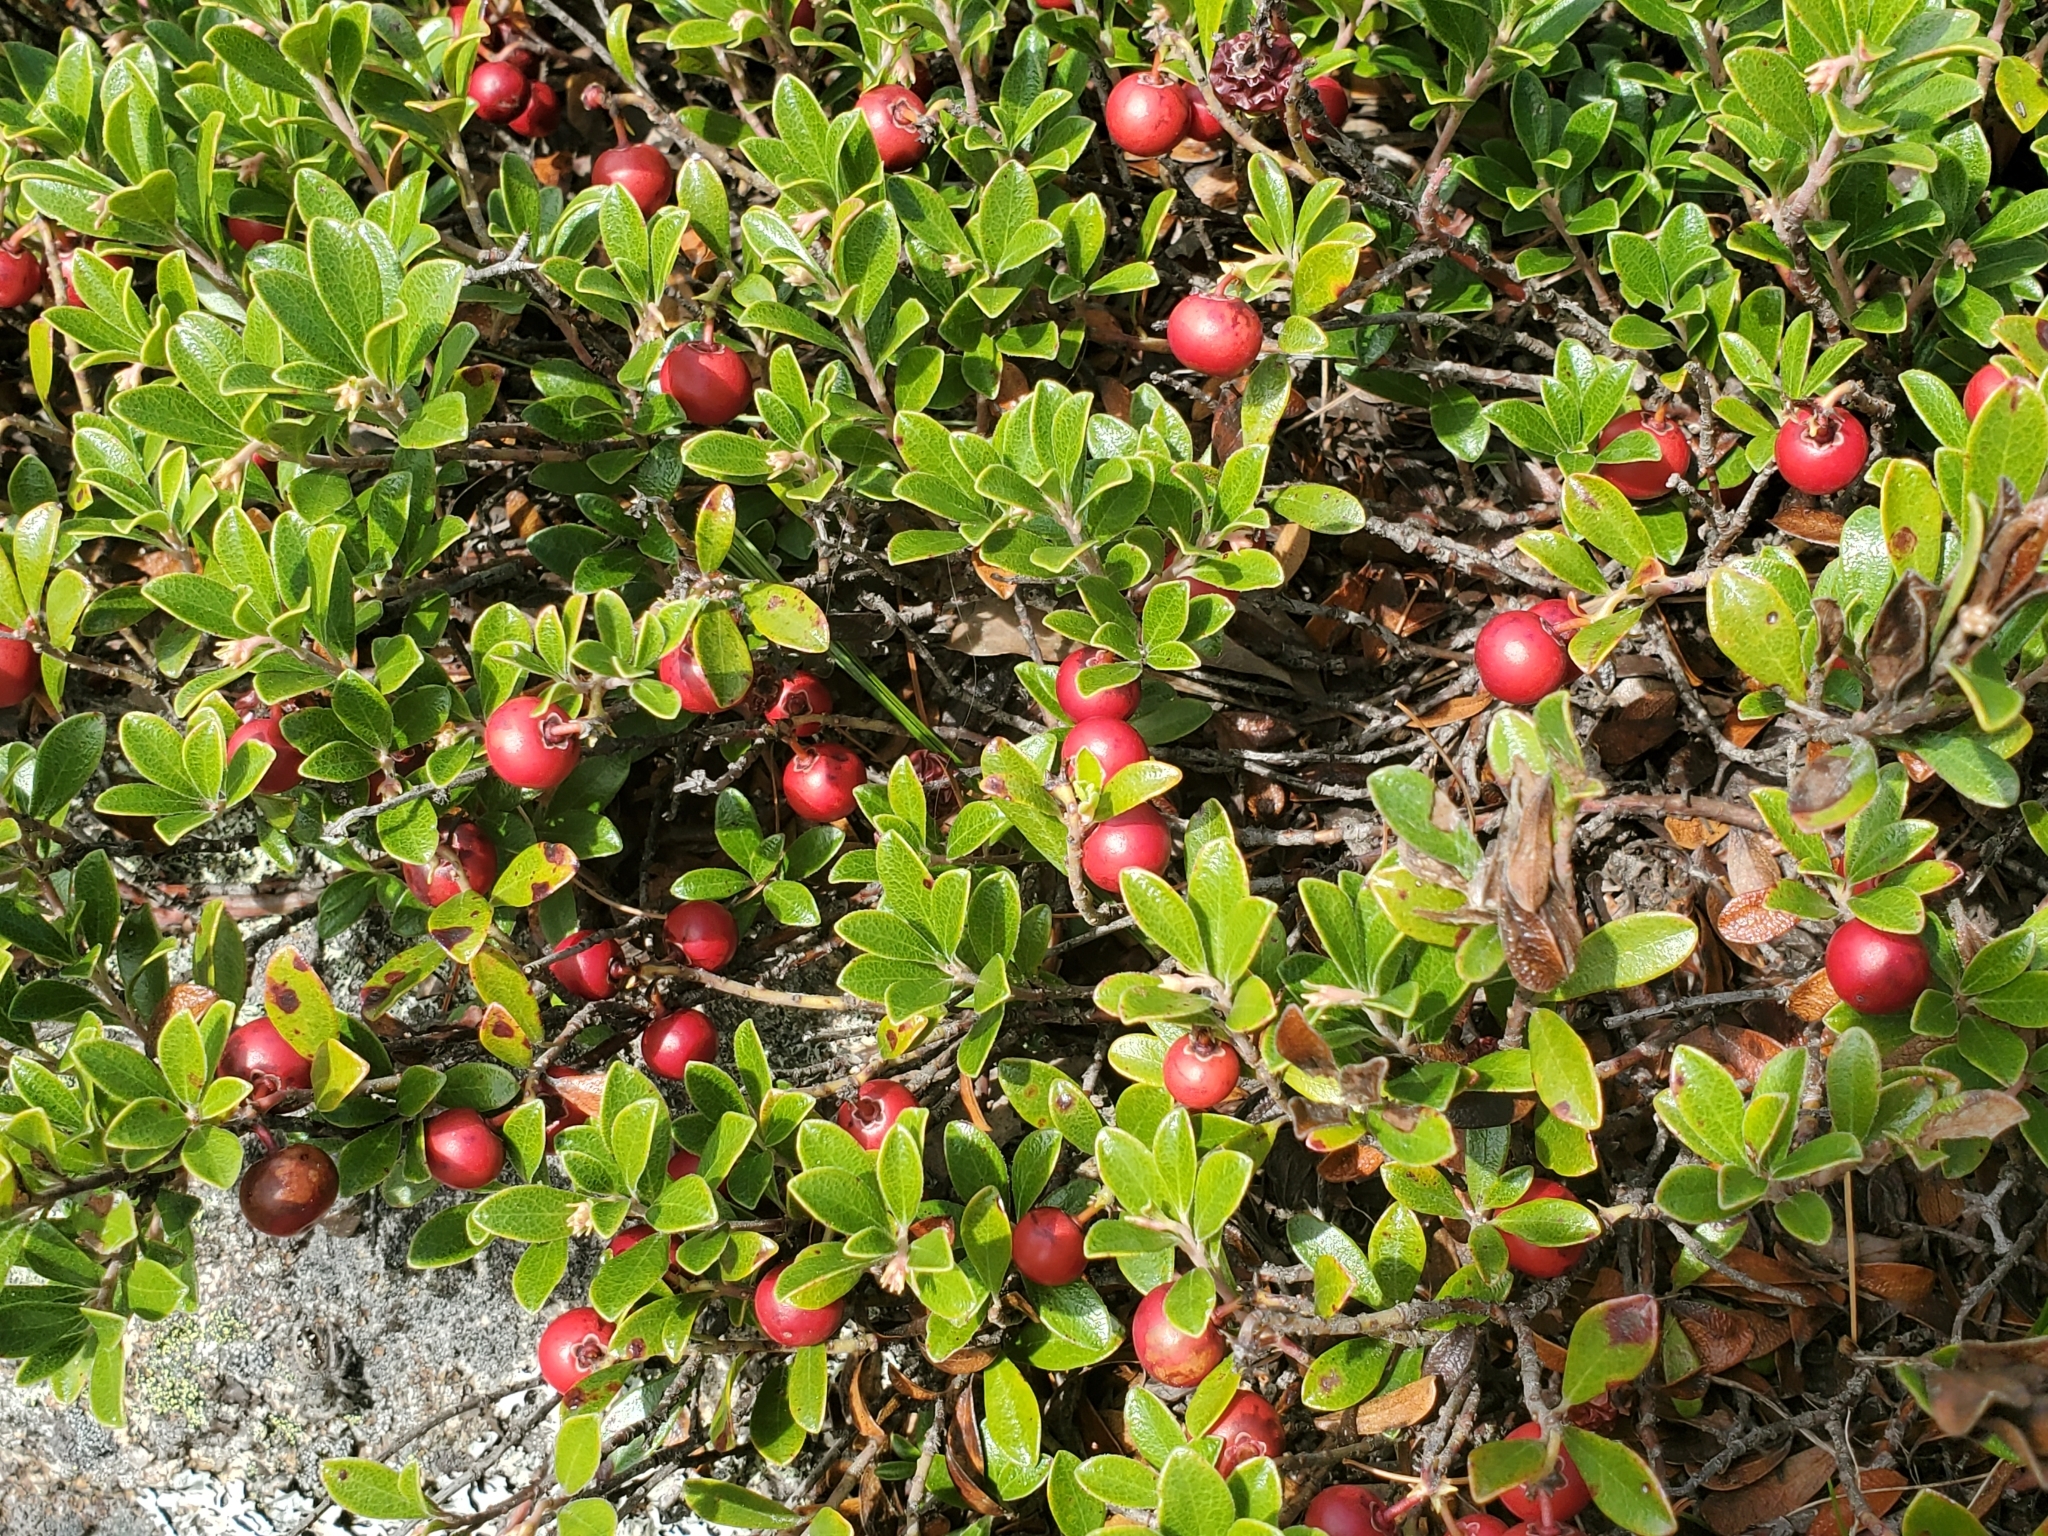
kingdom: Plantae
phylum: Tracheophyta
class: Magnoliopsida
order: Ericales
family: Ericaceae
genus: Arctostaphylos
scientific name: Arctostaphylos uva-ursi
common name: Bearberry
